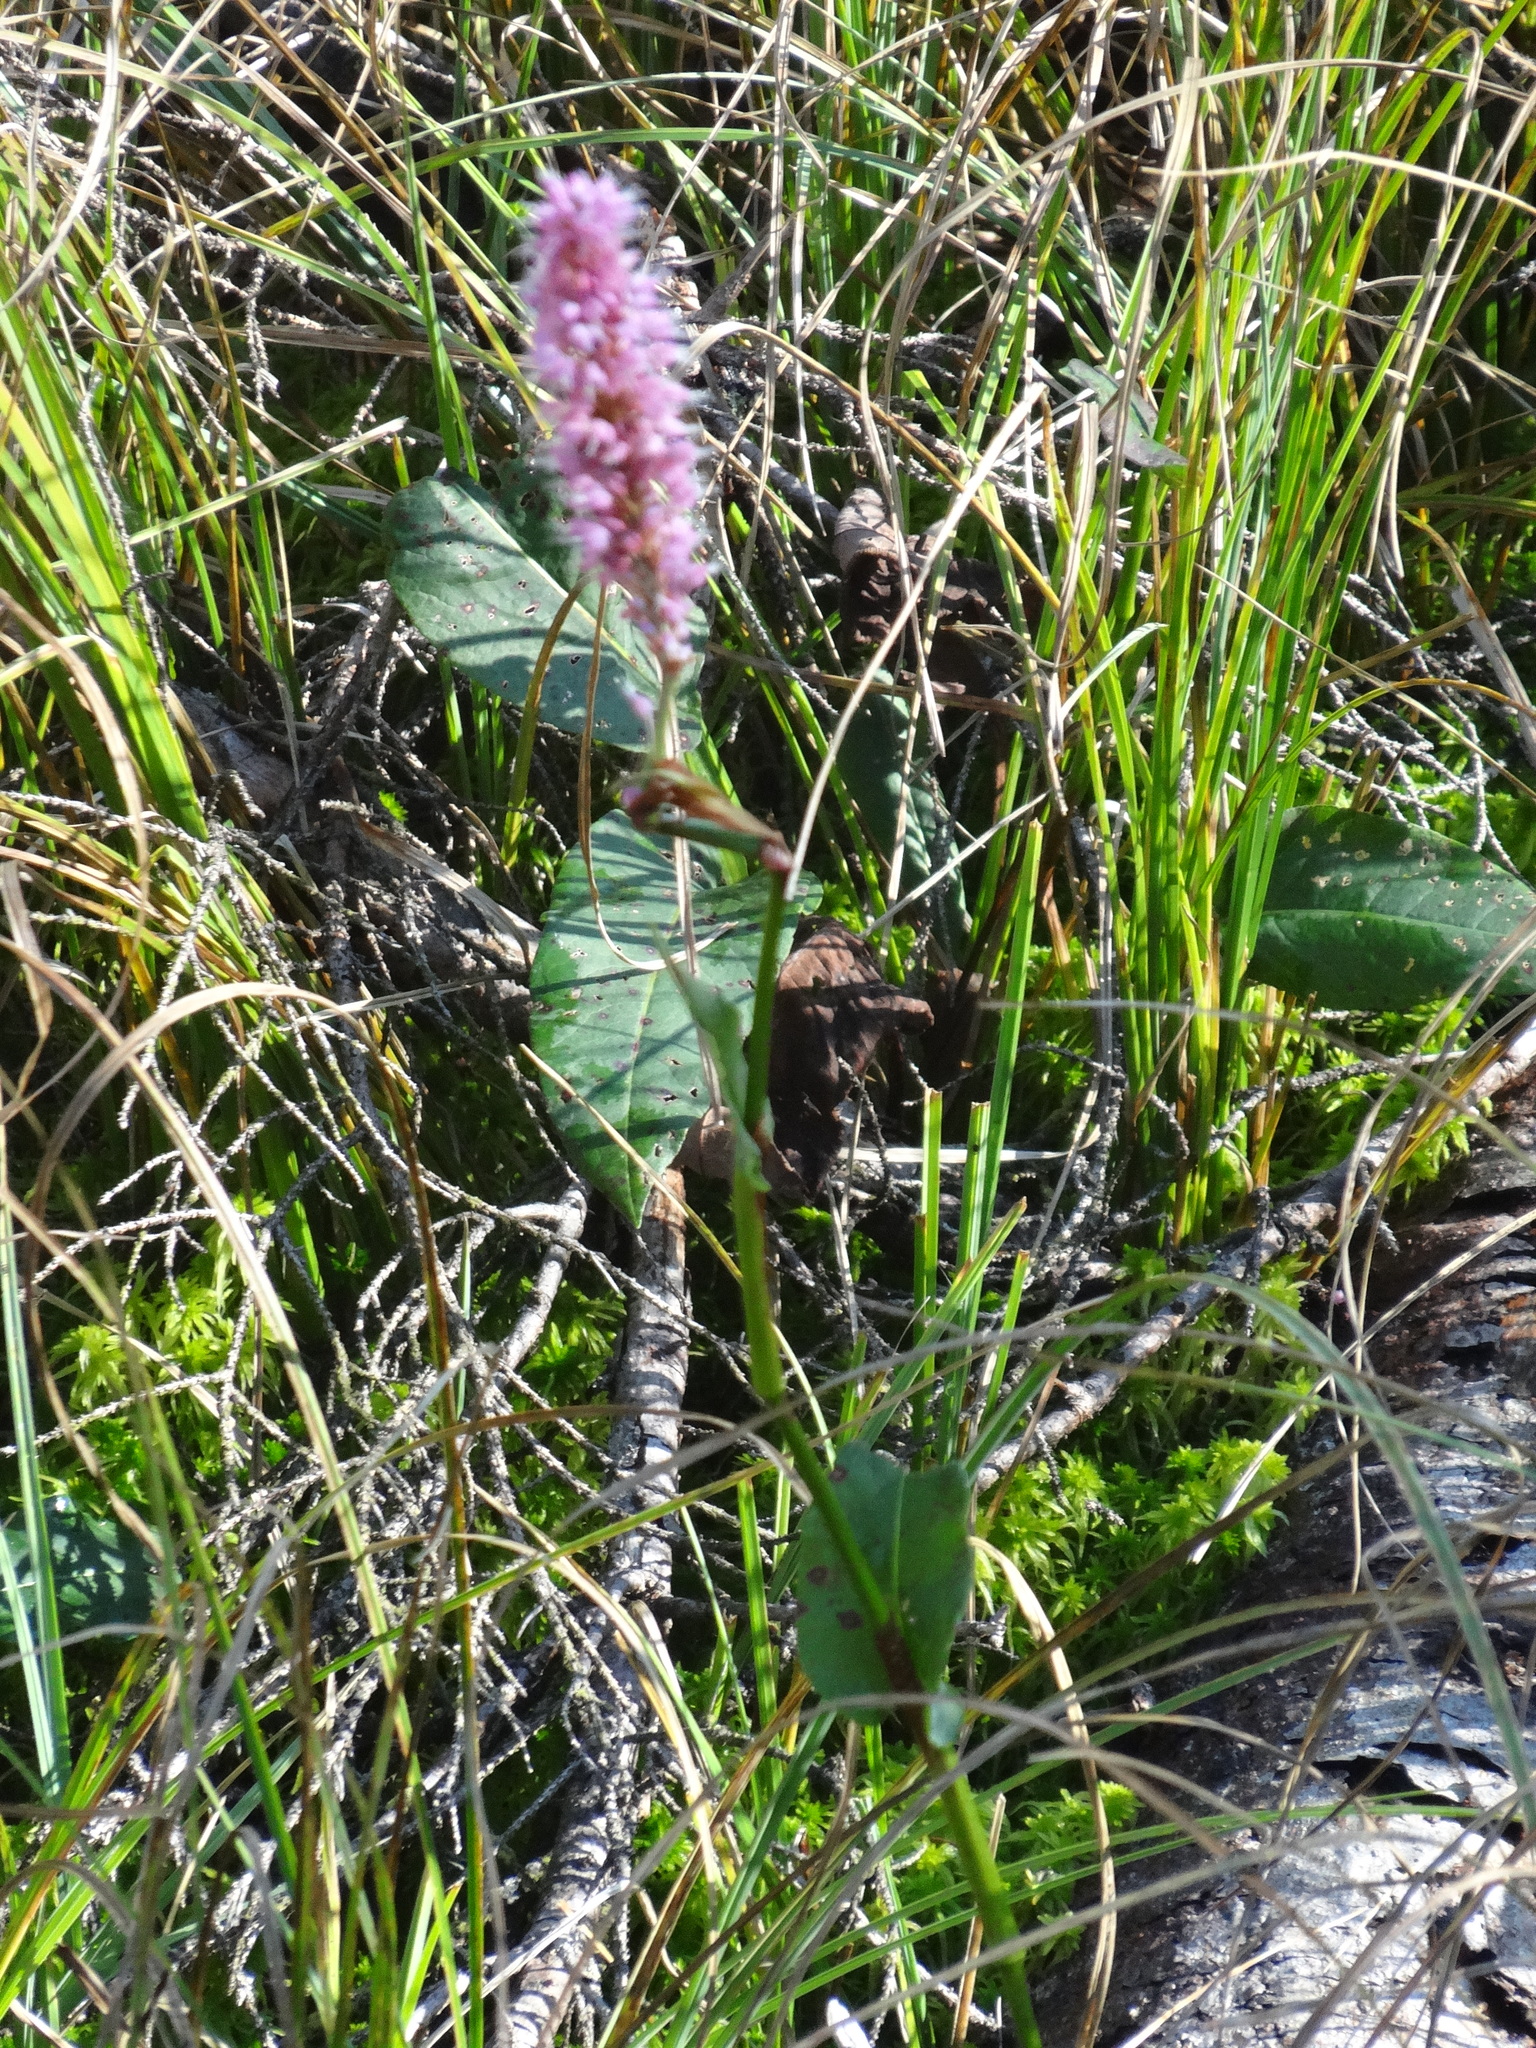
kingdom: Plantae
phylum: Tracheophyta
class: Magnoliopsida
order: Caryophyllales
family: Polygonaceae
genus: Bistorta
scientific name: Bistorta officinalis
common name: Common bistort
